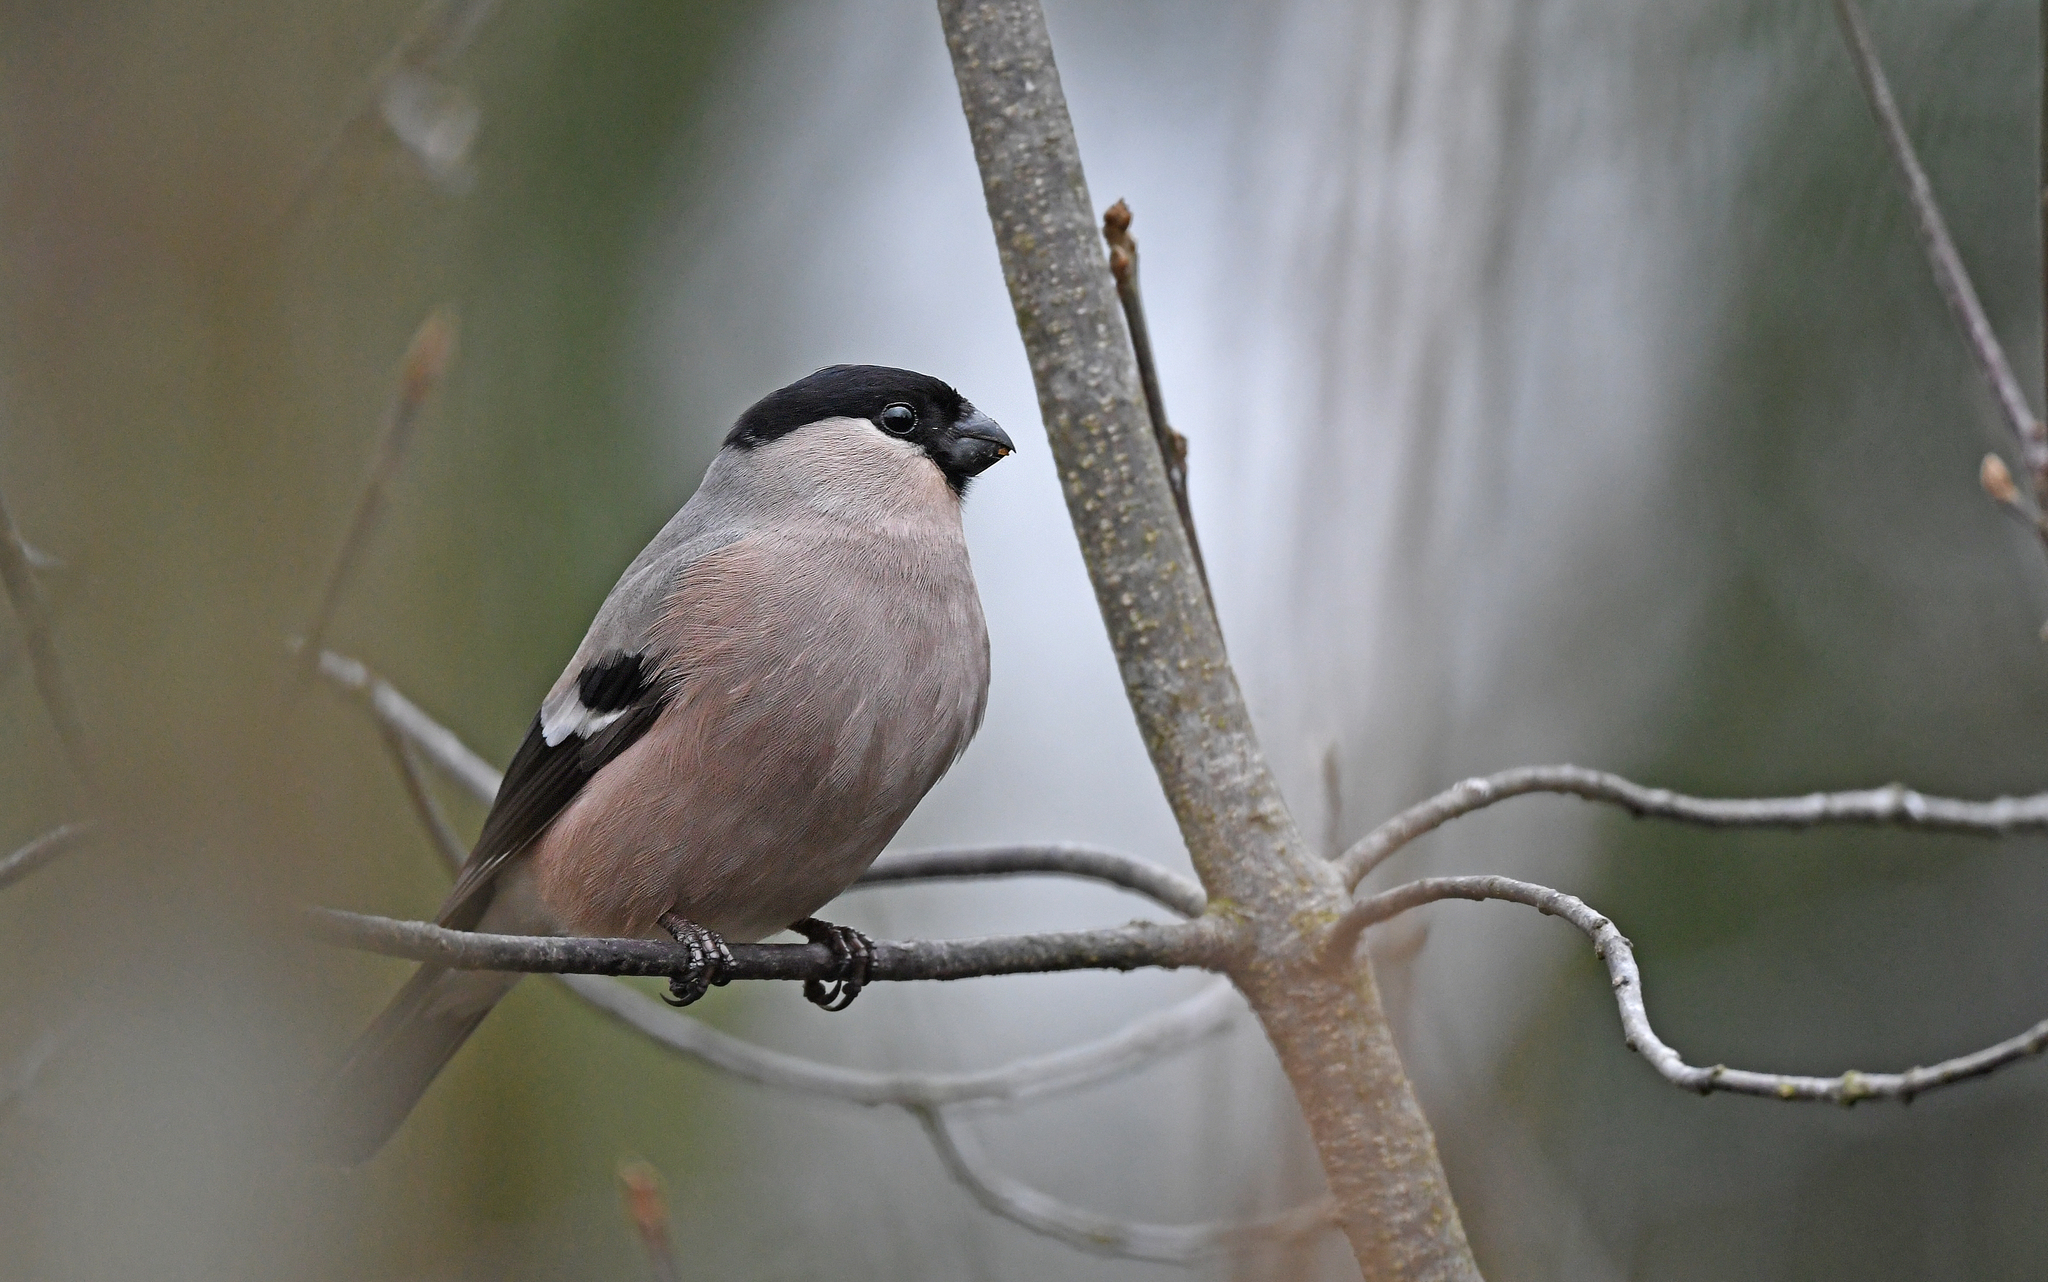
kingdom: Animalia
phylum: Chordata
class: Aves
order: Passeriformes
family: Fringillidae
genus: Pyrrhula
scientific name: Pyrrhula pyrrhula
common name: Eurasian bullfinch
